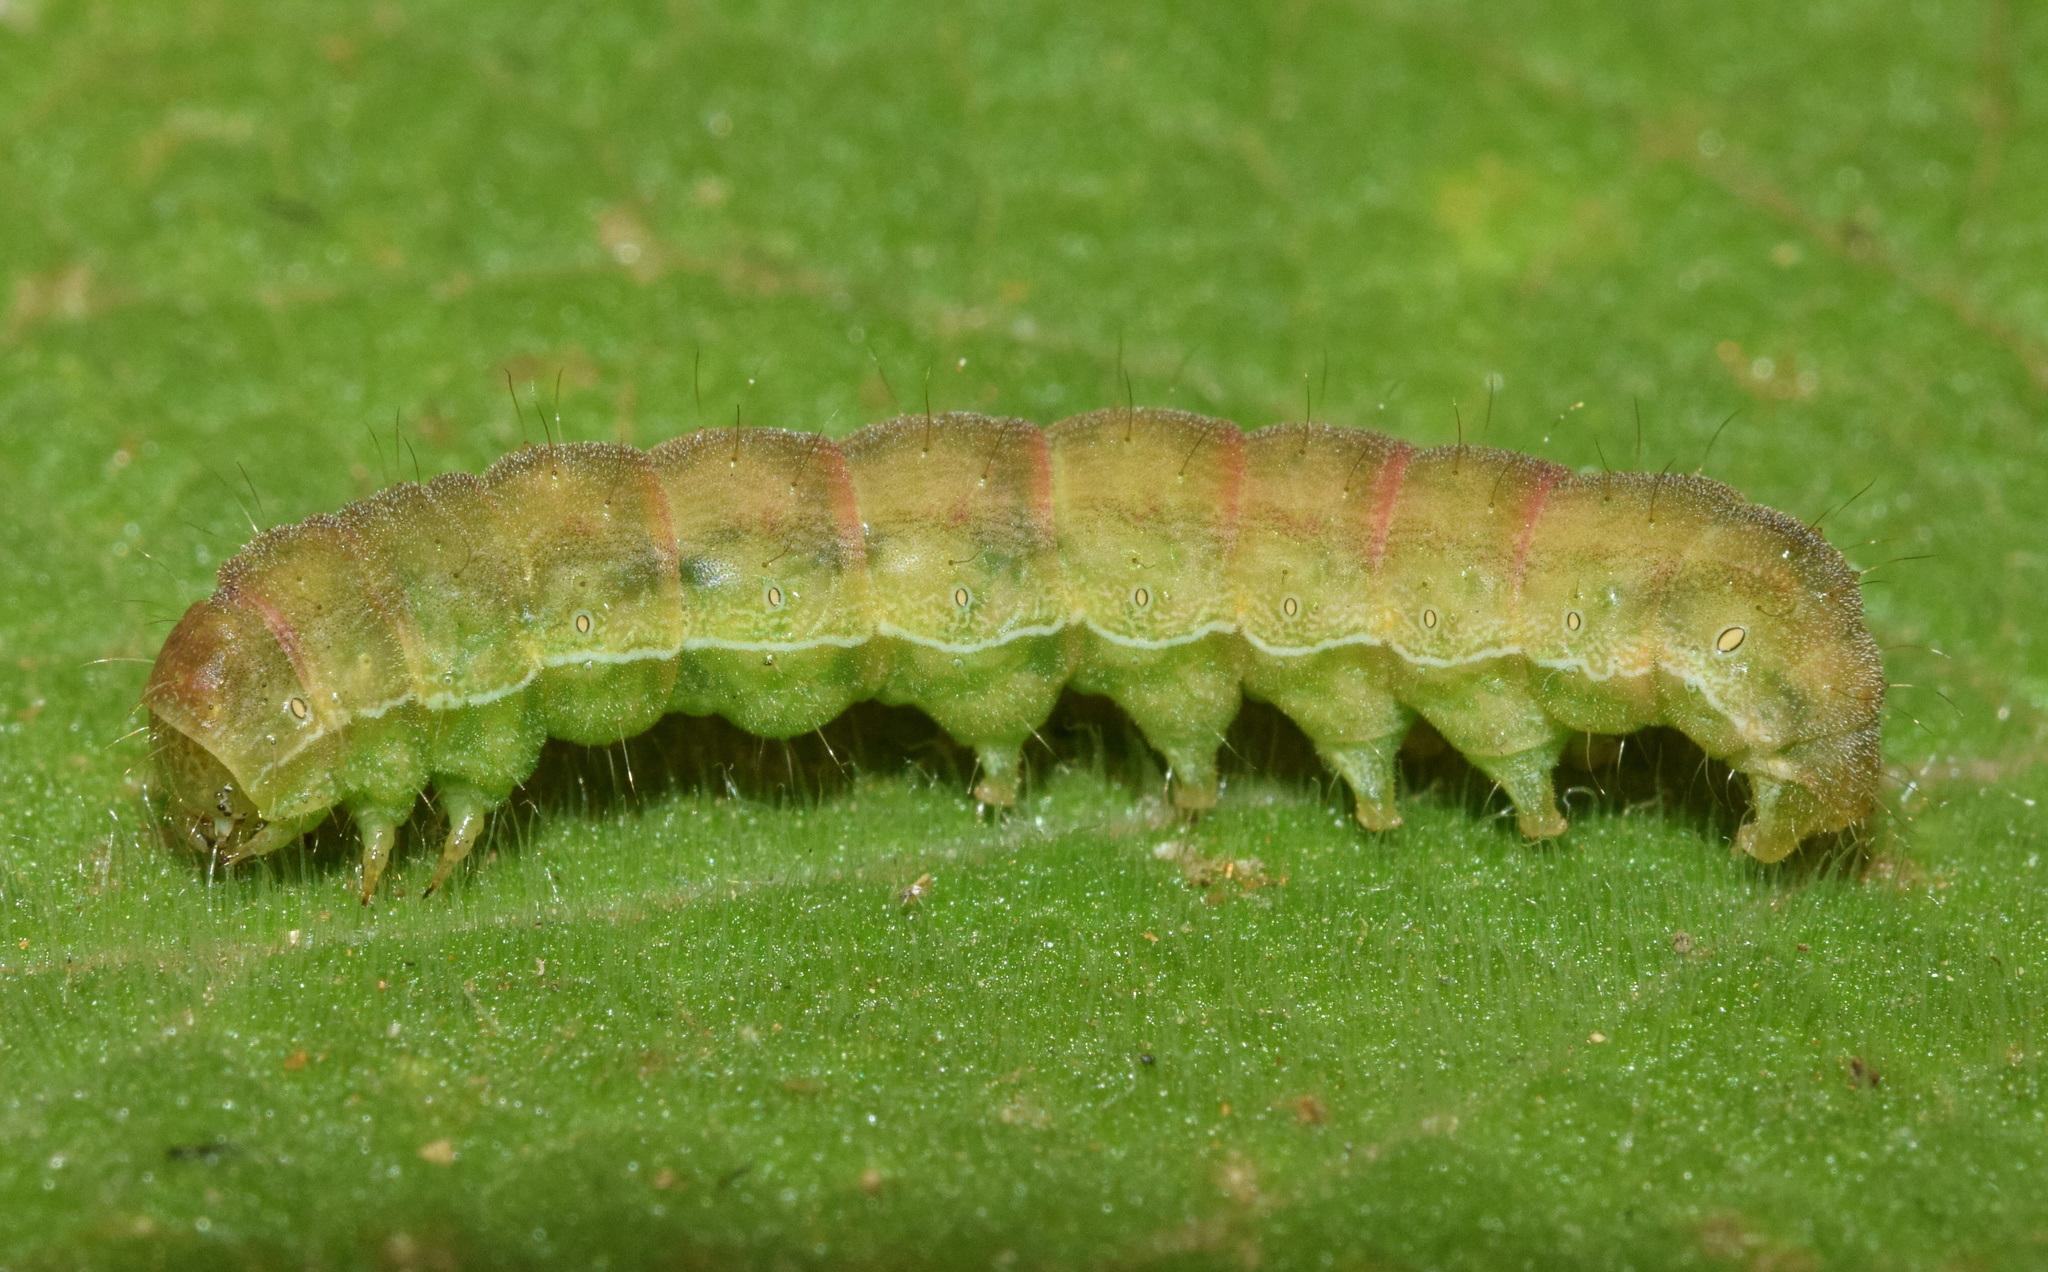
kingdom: Animalia
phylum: Arthropoda
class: Insecta
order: Lepidoptera
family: Noctuidae
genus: Helicoverpa
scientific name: Helicoverpa armigera
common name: Cotton bollworm
